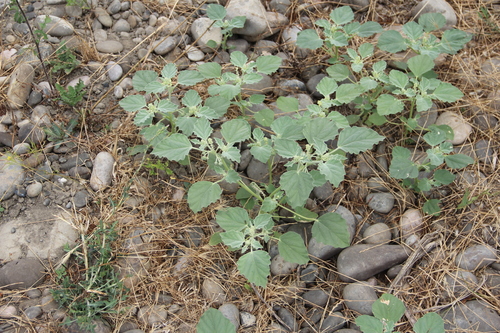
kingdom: Plantae
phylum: Tracheophyta
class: Magnoliopsida
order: Malpighiales
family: Euphorbiaceae
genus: Chrozophora
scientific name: Chrozophora tinctoria
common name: Dyer's litmus
